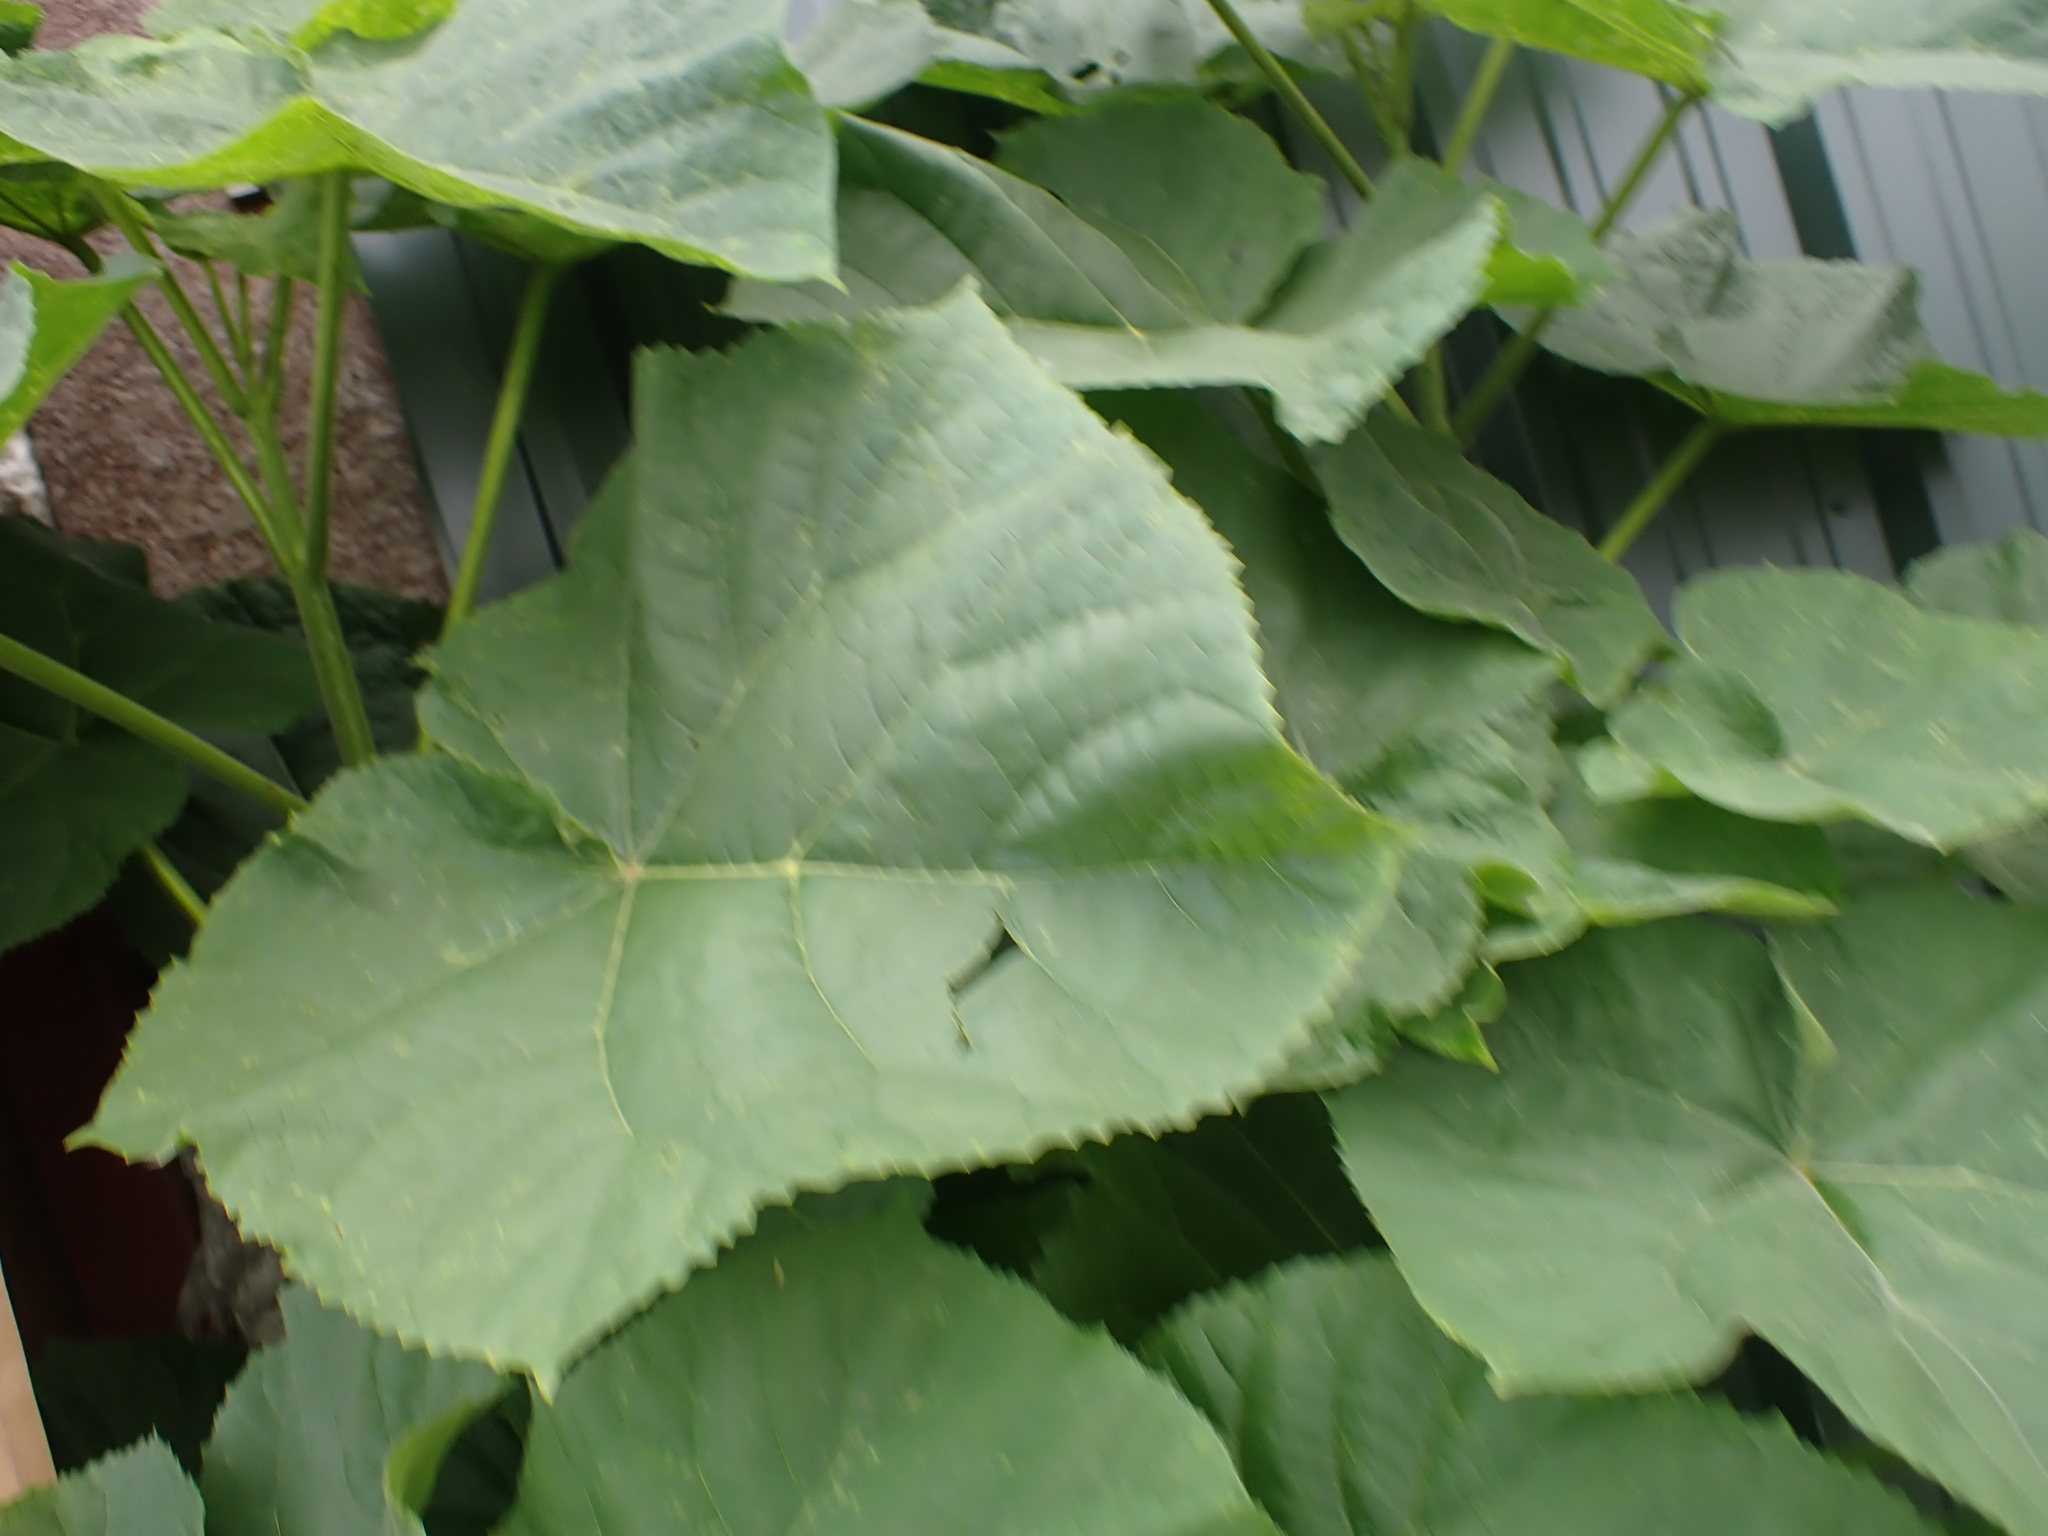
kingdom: Plantae
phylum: Tracheophyta
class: Magnoliopsida
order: Lamiales
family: Paulowniaceae
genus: Paulownia
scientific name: Paulownia tomentosa
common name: Foxglove-tree
